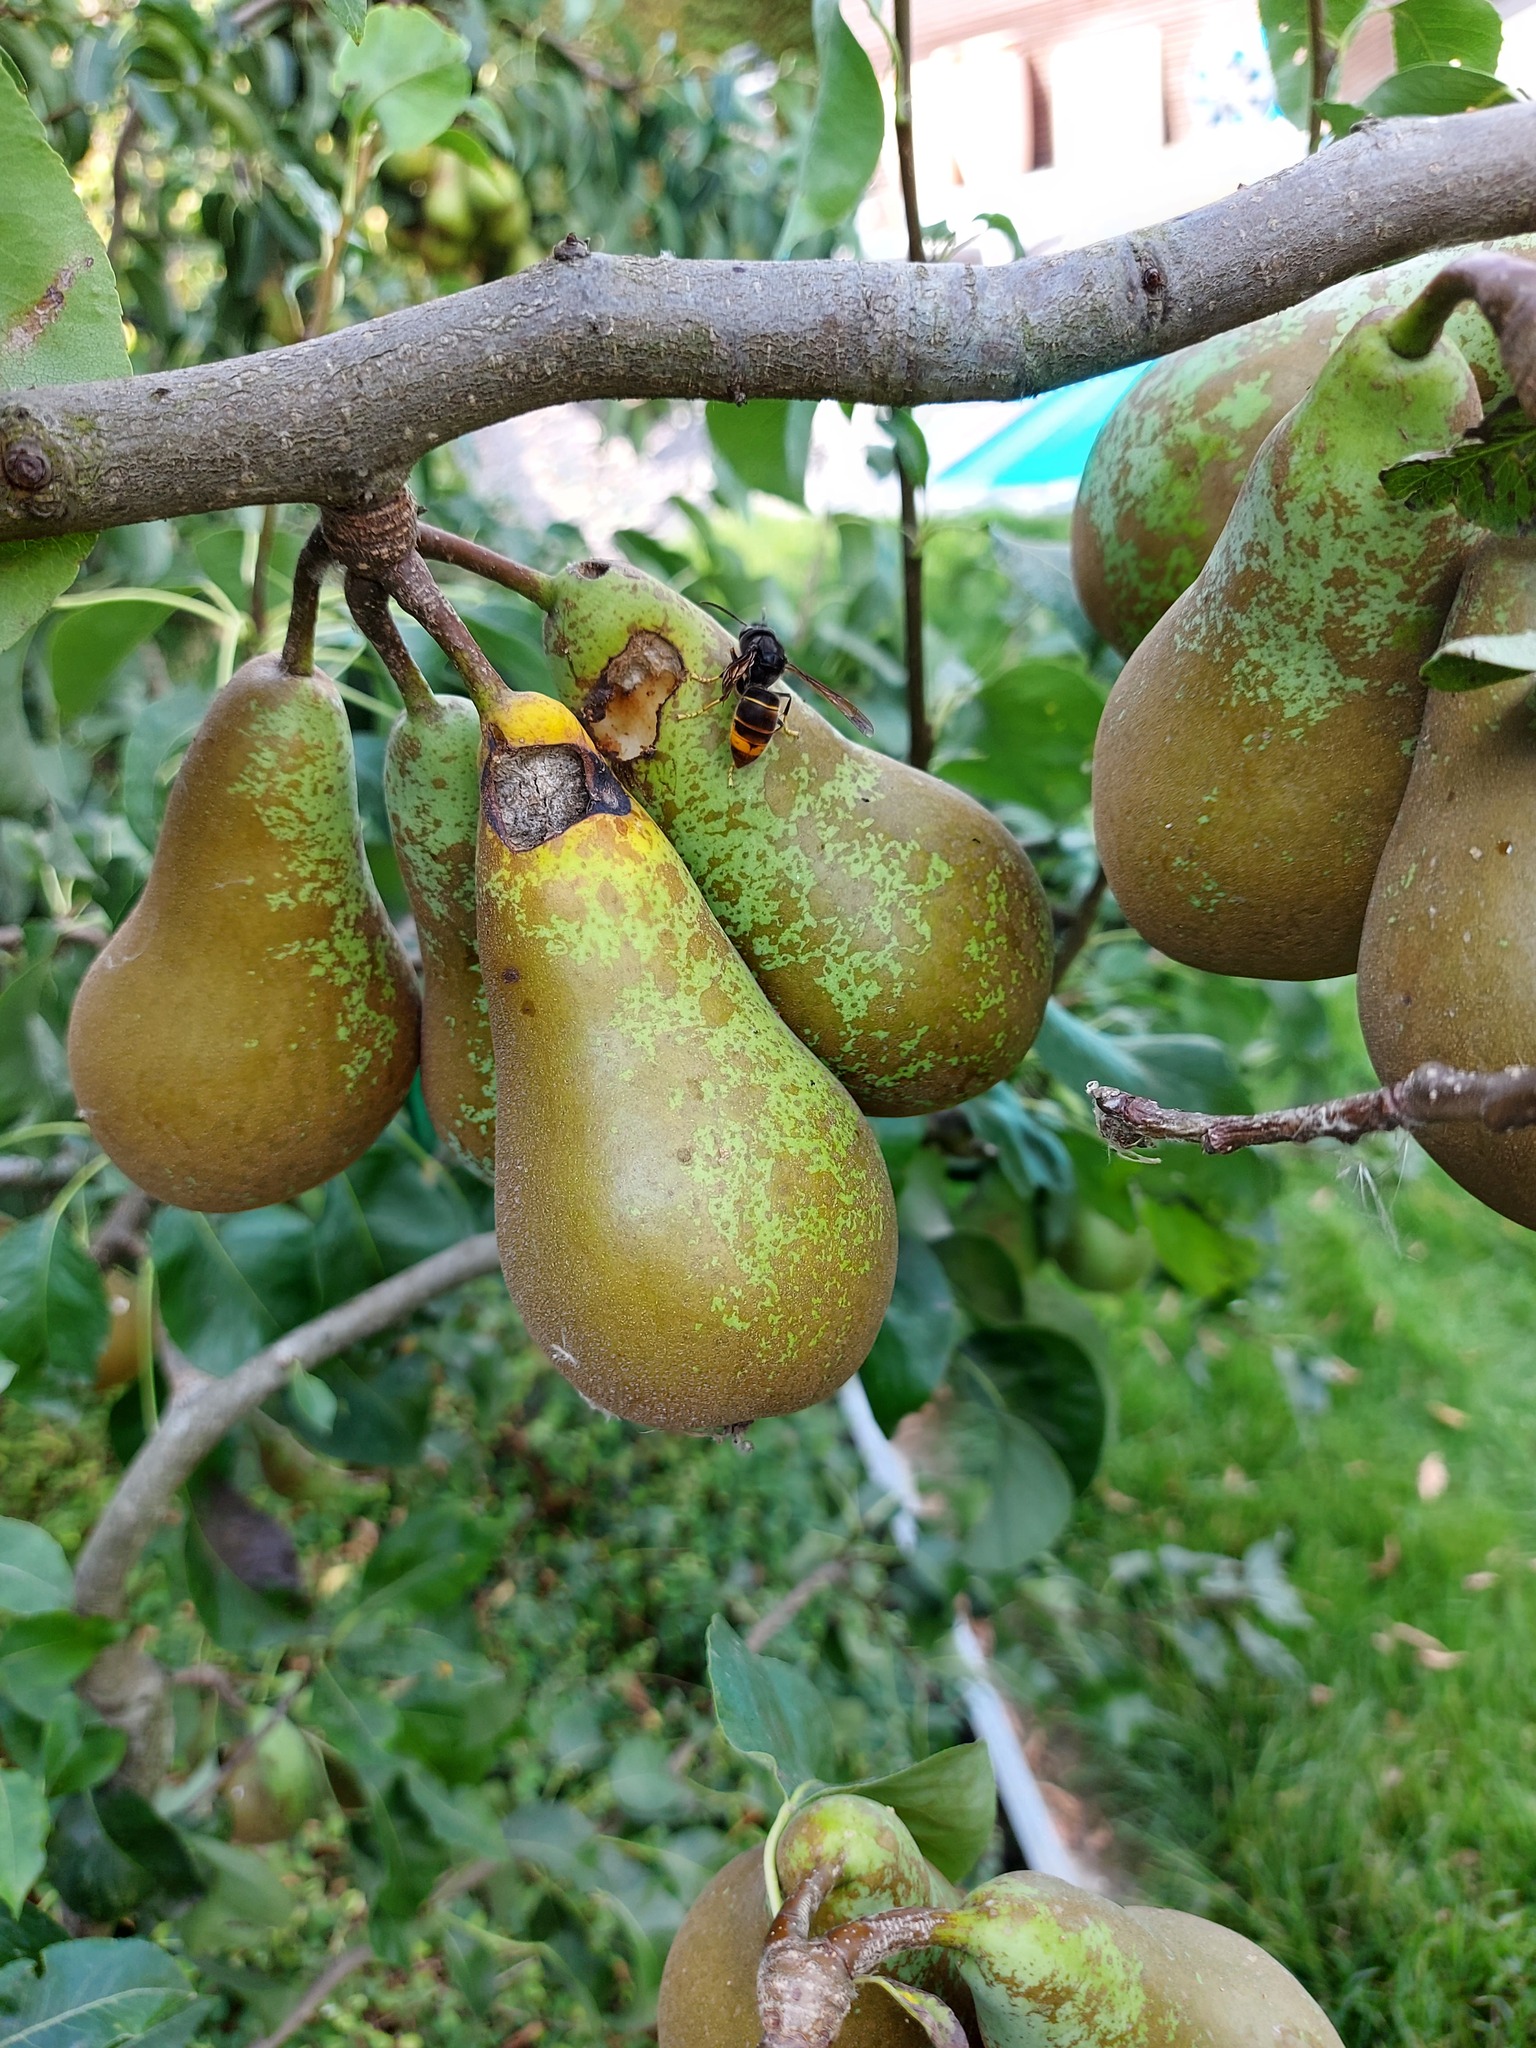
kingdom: Animalia
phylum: Arthropoda
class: Insecta
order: Hymenoptera
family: Vespidae
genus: Vespa
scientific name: Vespa velutina
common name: Asian hornet
